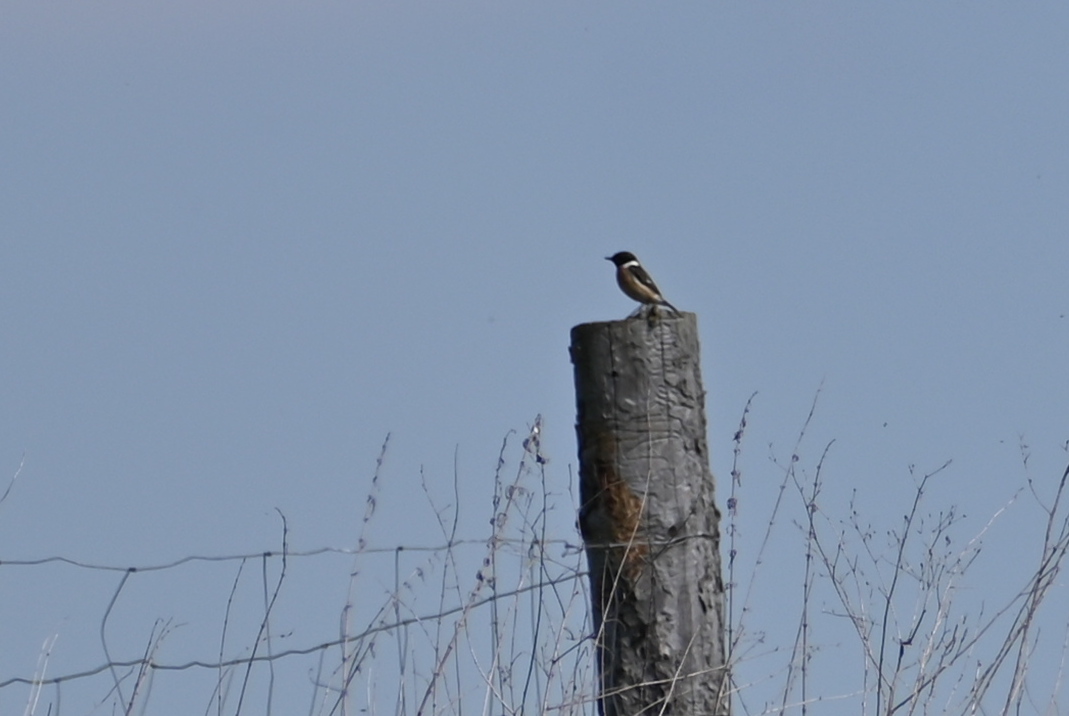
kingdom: Animalia
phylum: Chordata
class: Aves
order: Passeriformes
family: Muscicapidae
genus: Saxicola
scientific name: Saxicola rubicola
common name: European stonechat
